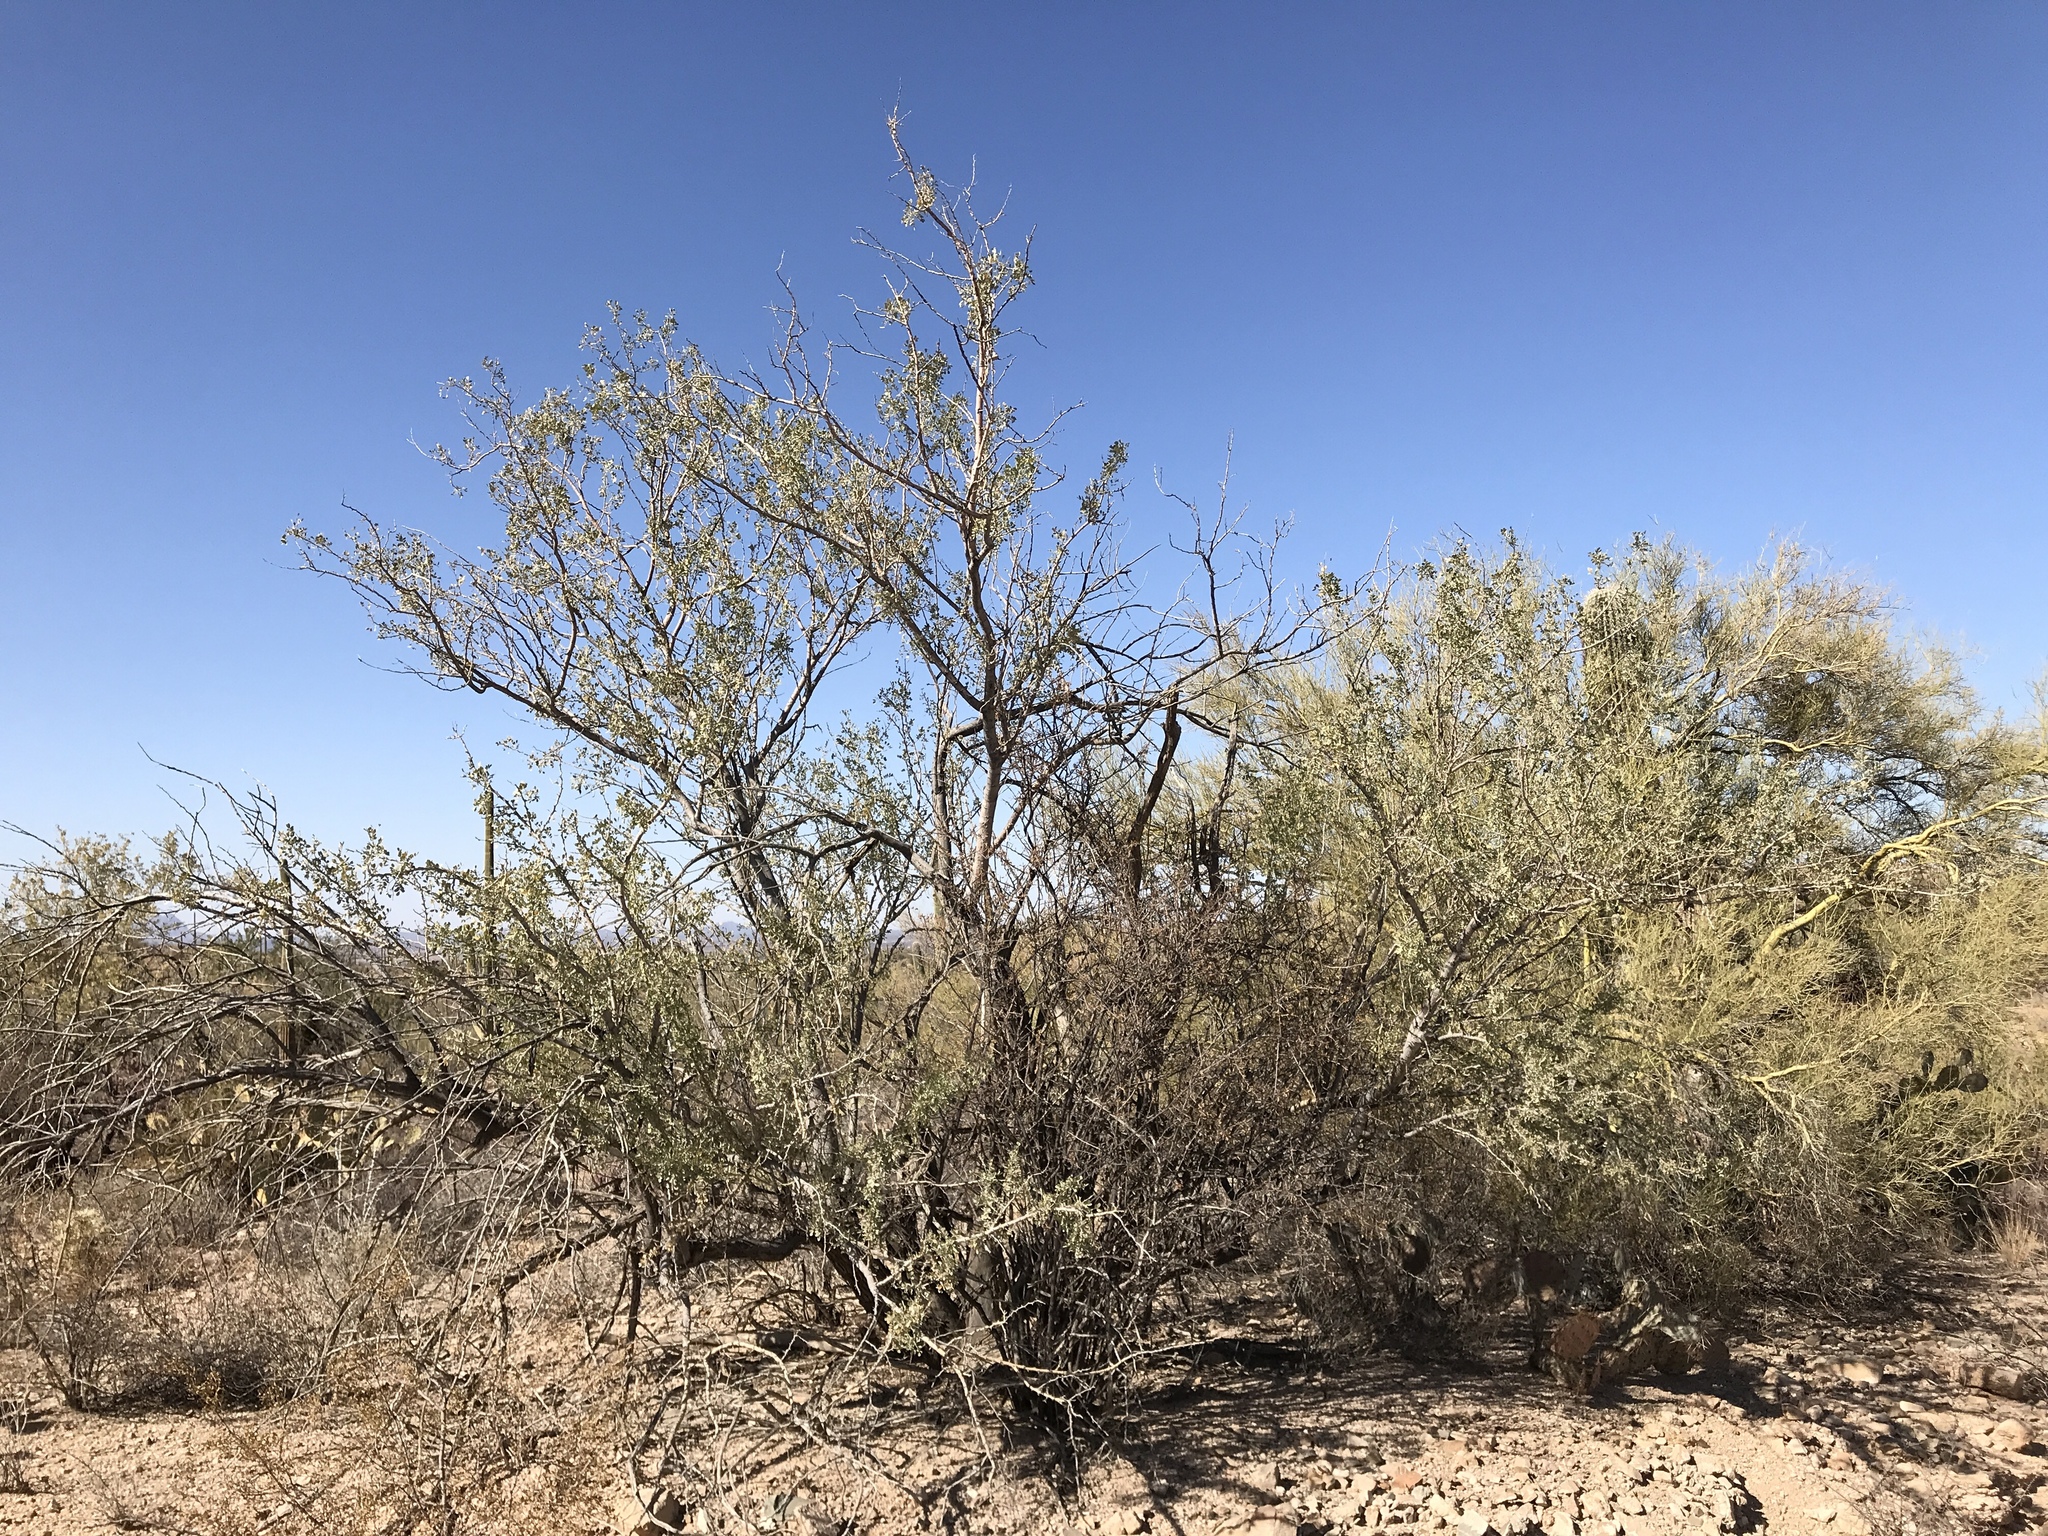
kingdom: Plantae
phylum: Tracheophyta
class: Magnoliopsida
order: Fabales
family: Fabaceae
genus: Olneya
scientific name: Olneya tesota
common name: Desert ironwood
